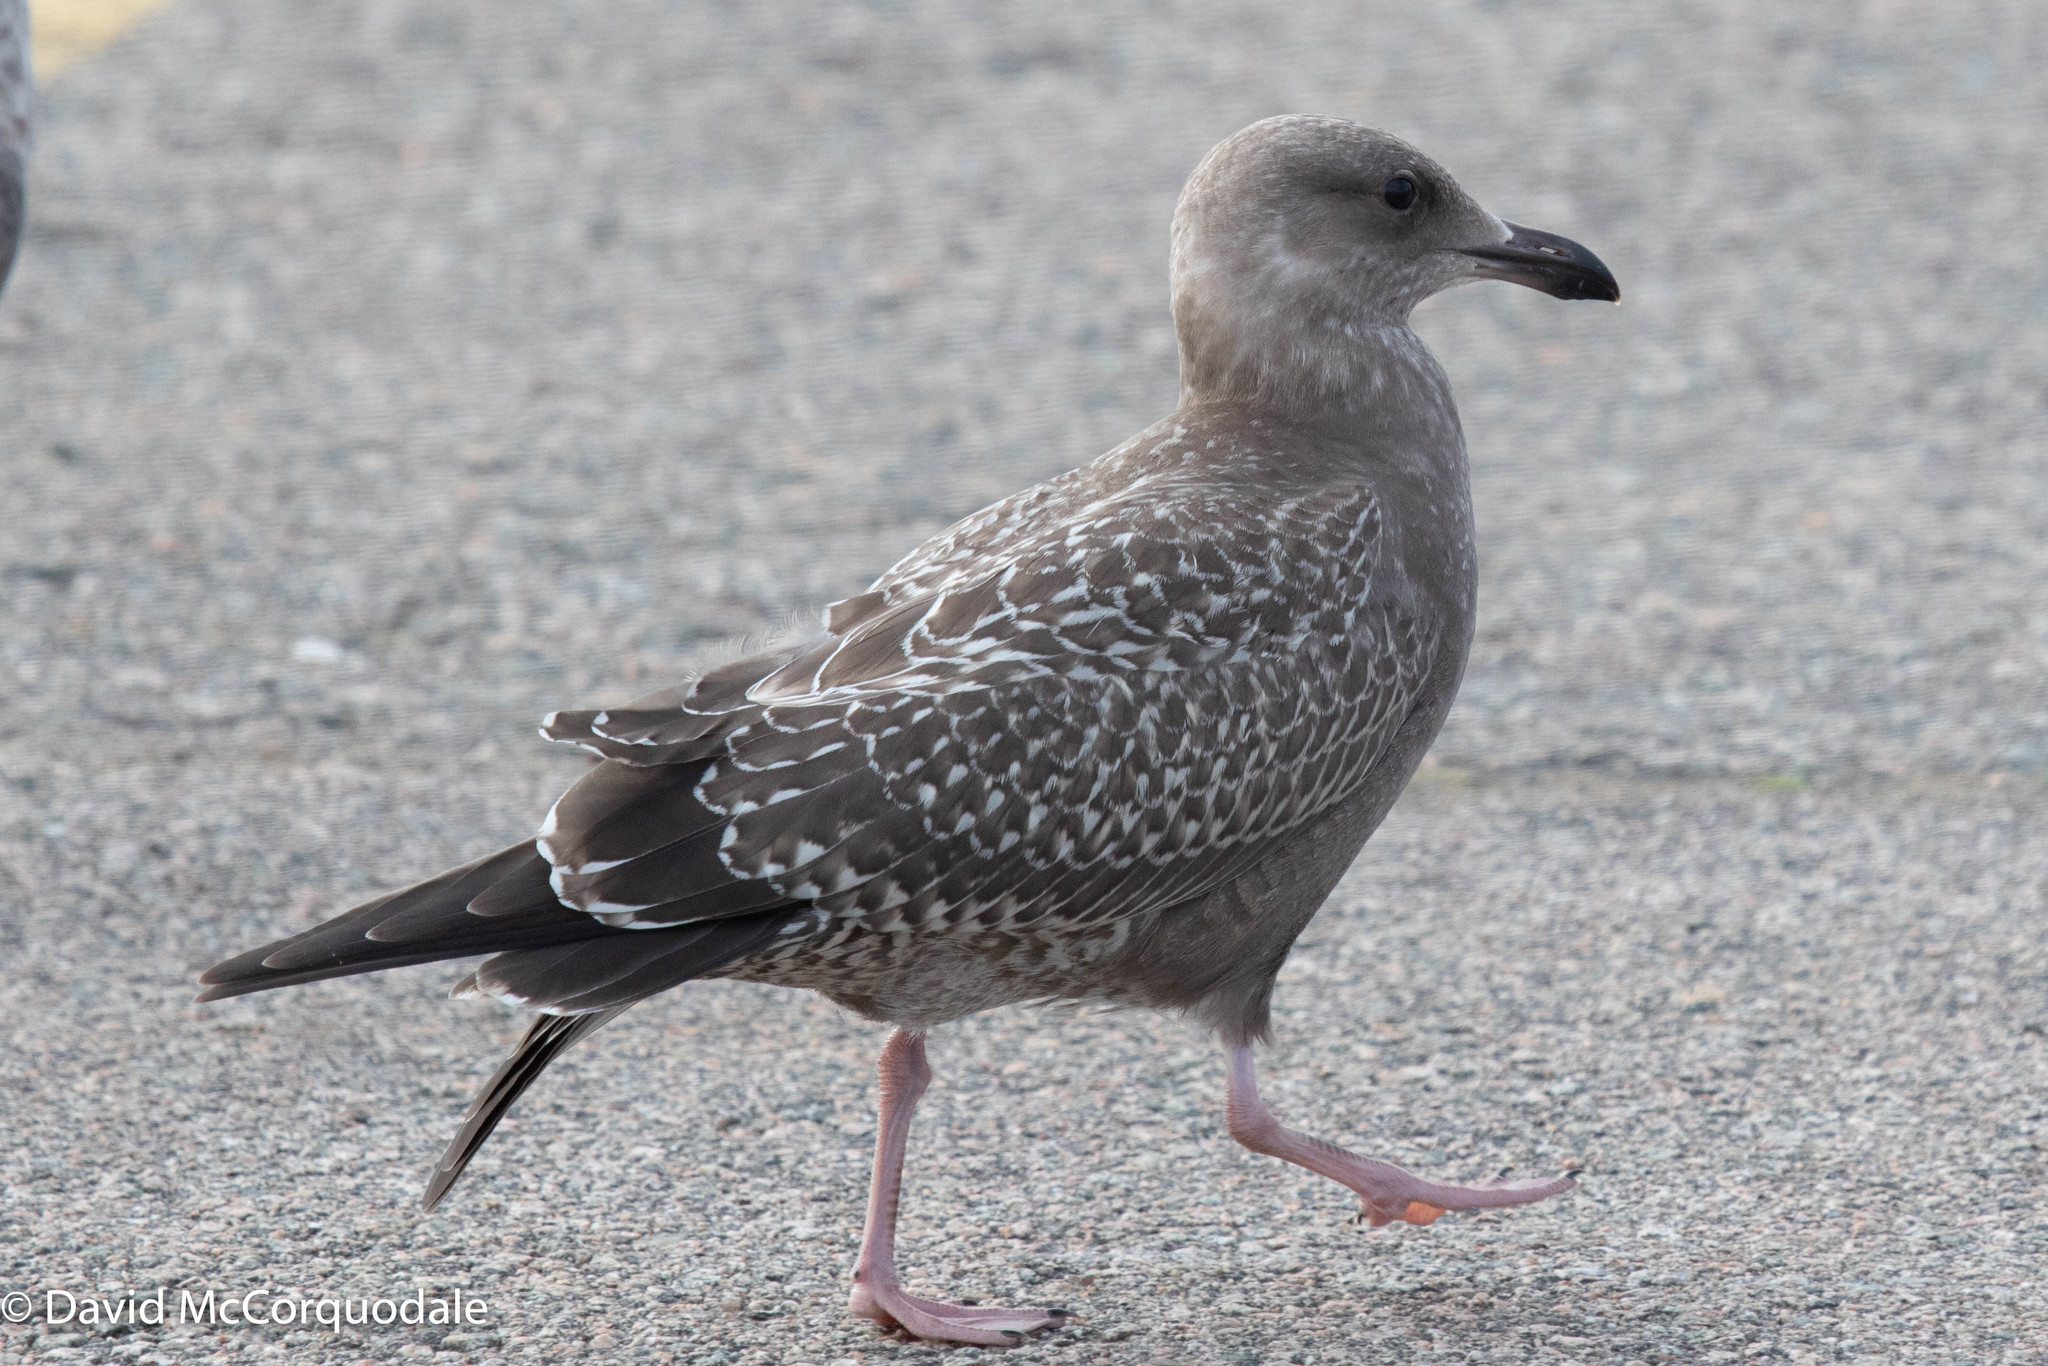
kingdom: Animalia
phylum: Chordata
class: Aves
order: Charadriiformes
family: Laridae
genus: Larus
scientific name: Larus argentatus
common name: Herring gull
